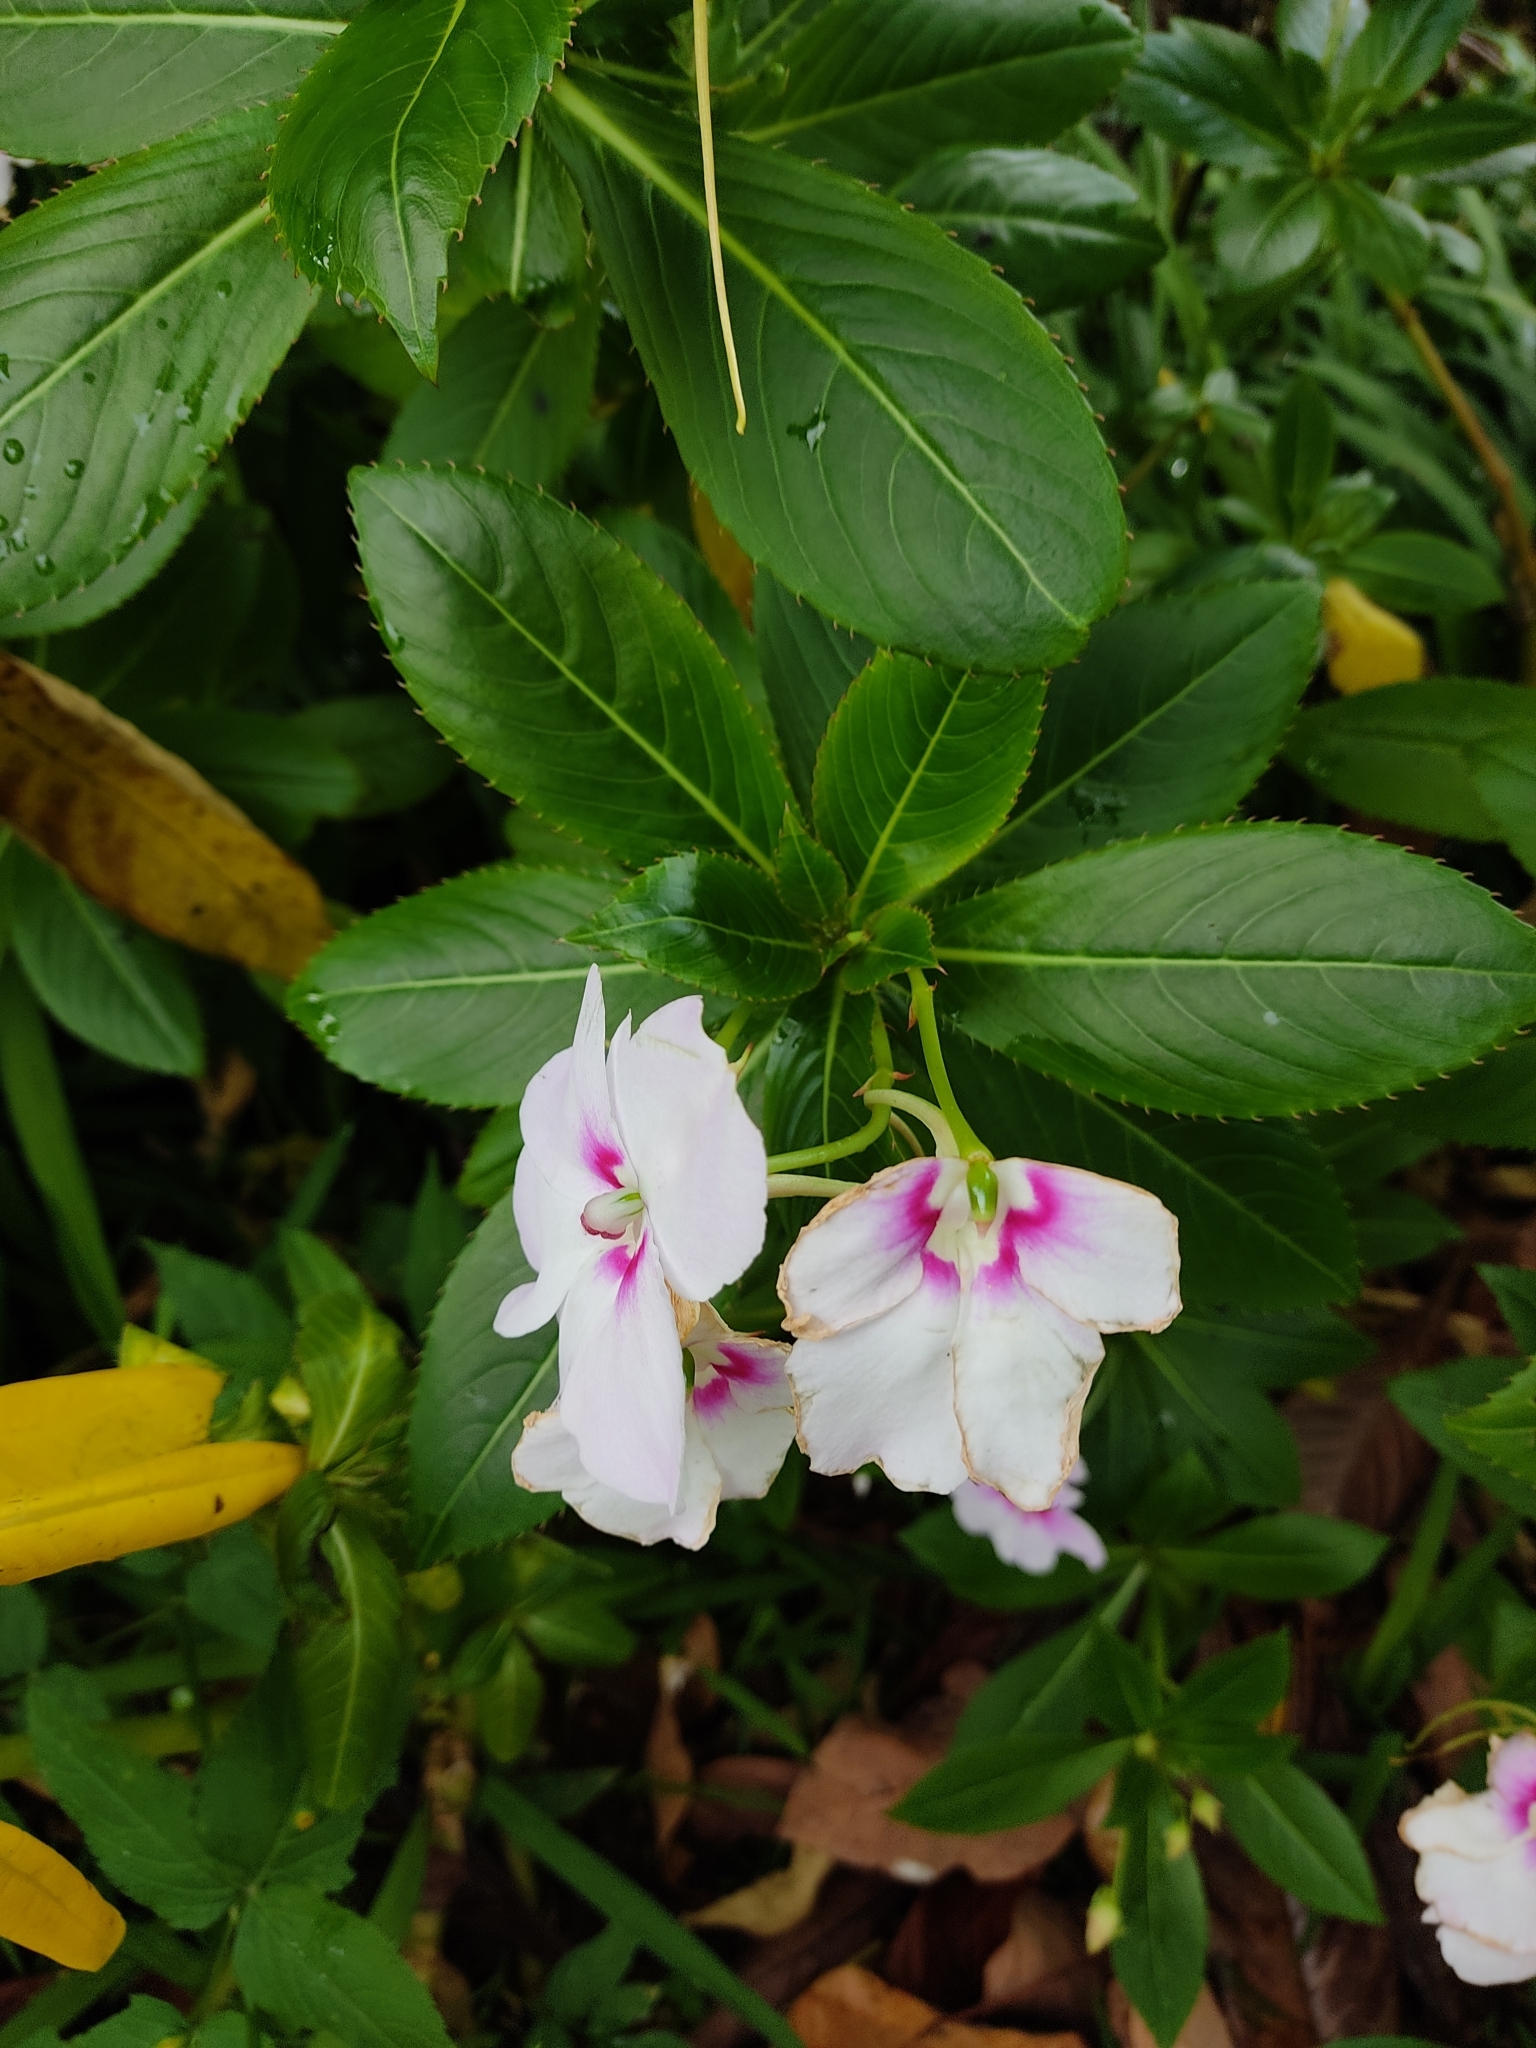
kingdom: Plantae
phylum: Tracheophyta
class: Magnoliopsida
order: Ericales
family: Balsaminaceae
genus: Impatiens
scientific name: Impatiens sodenii
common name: Oliver's touch-me-not
